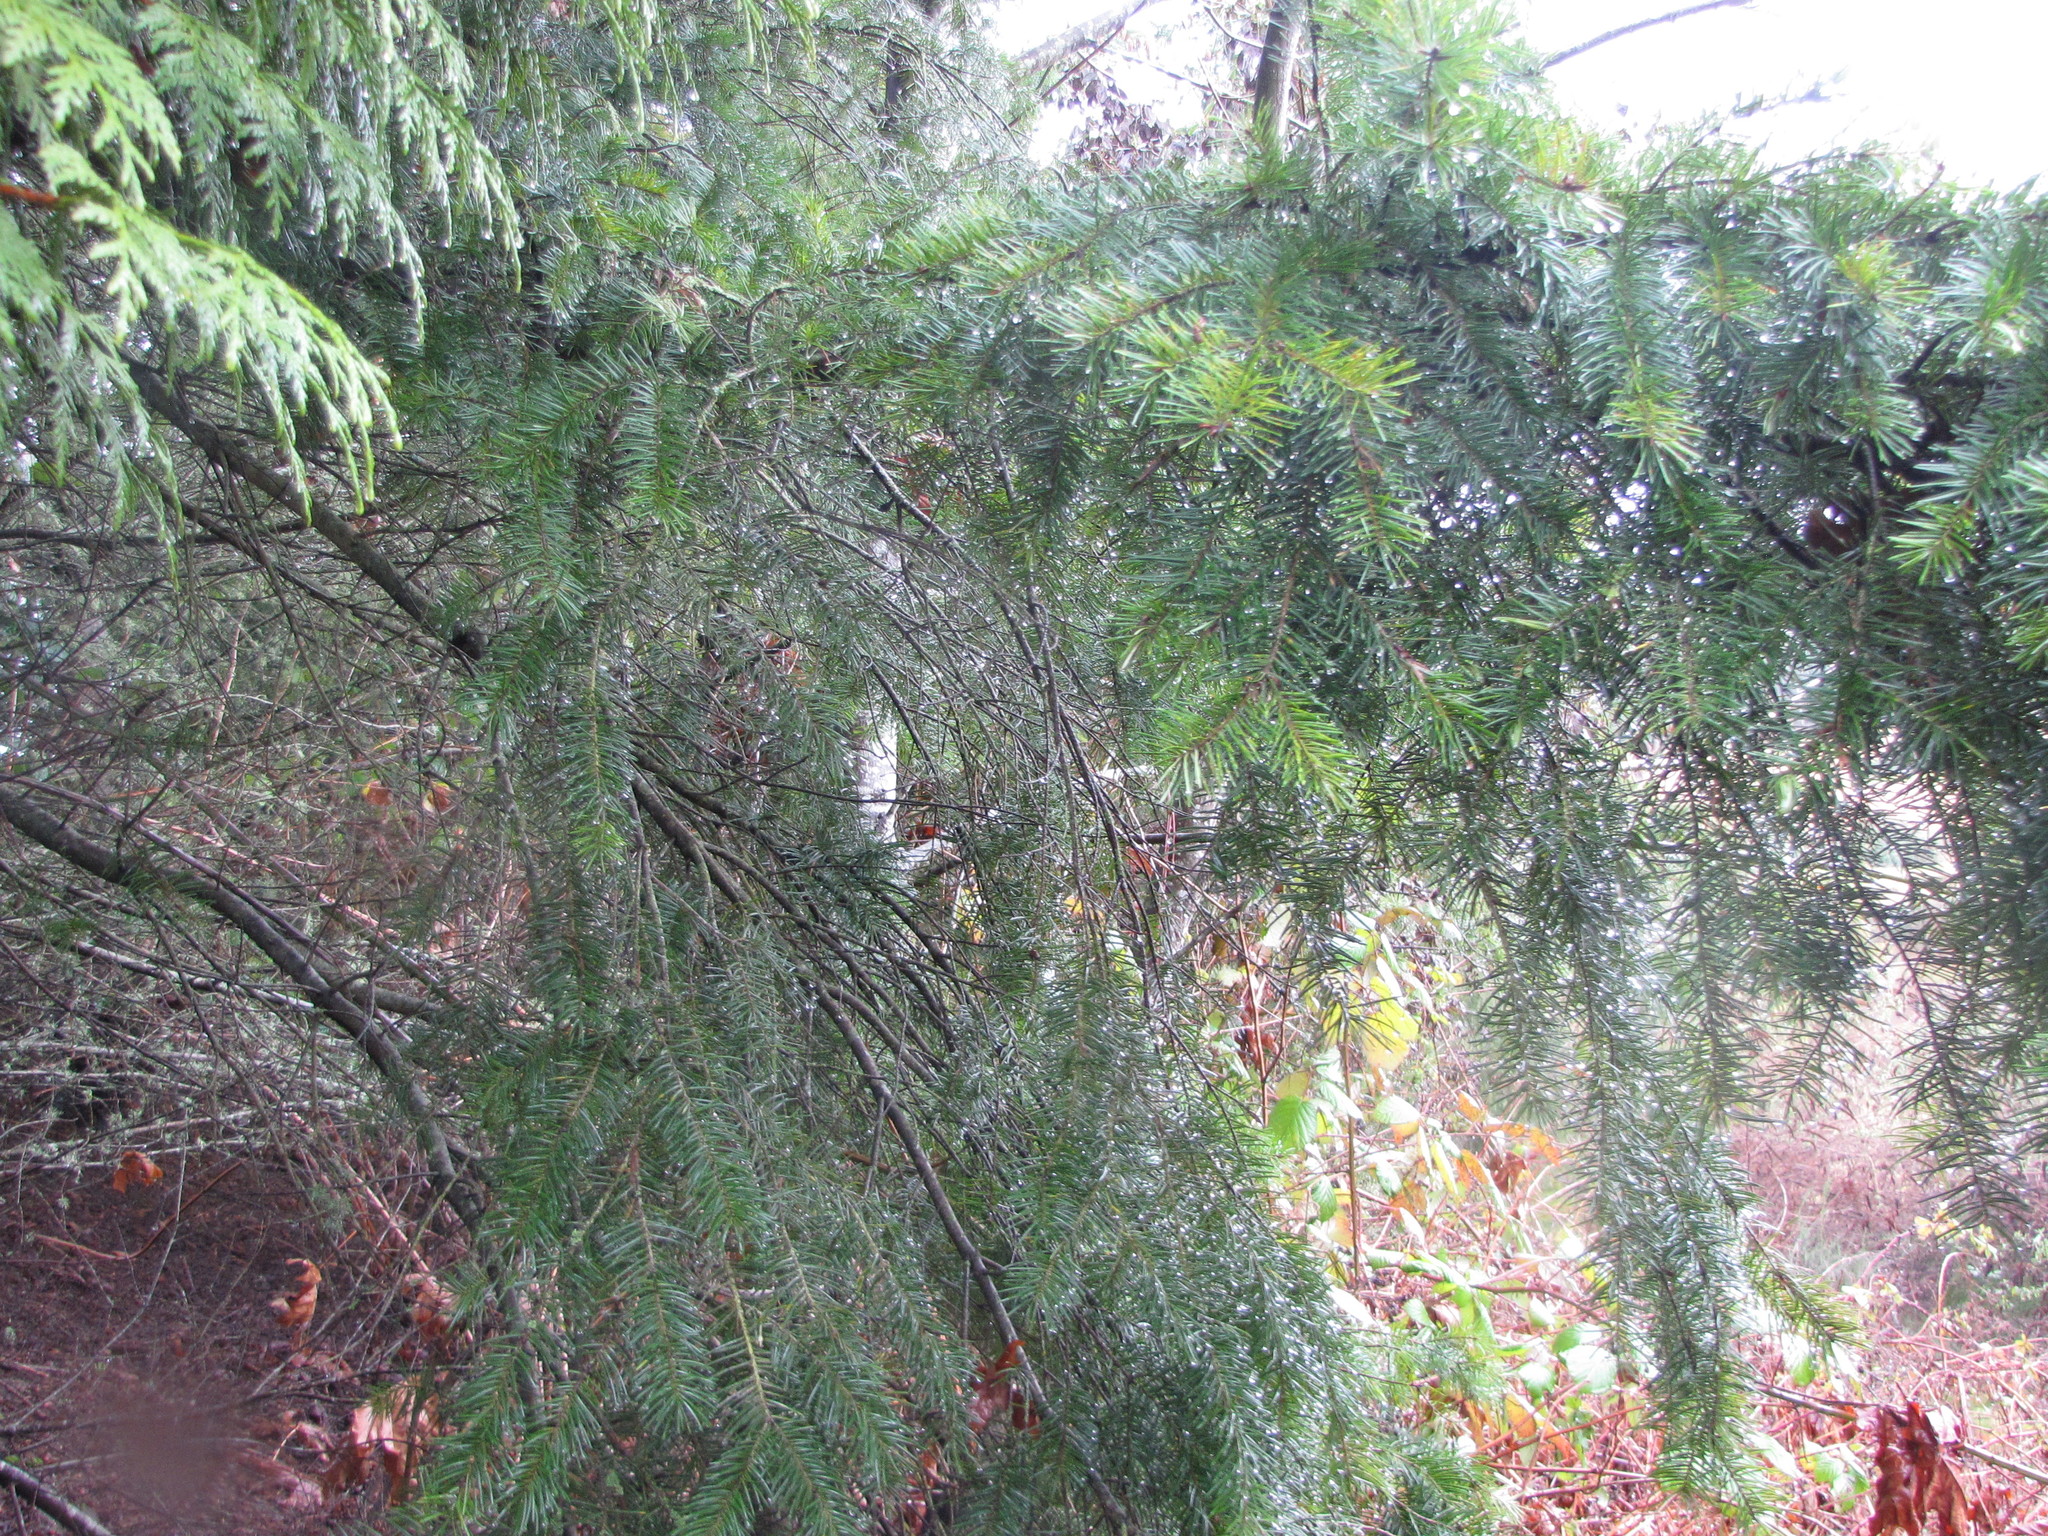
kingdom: Plantae
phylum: Tracheophyta
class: Pinopsida
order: Pinales
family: Pinaceae
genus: Pseudotsuga
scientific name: Pseudotsuga menziesii
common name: Douglas fir
